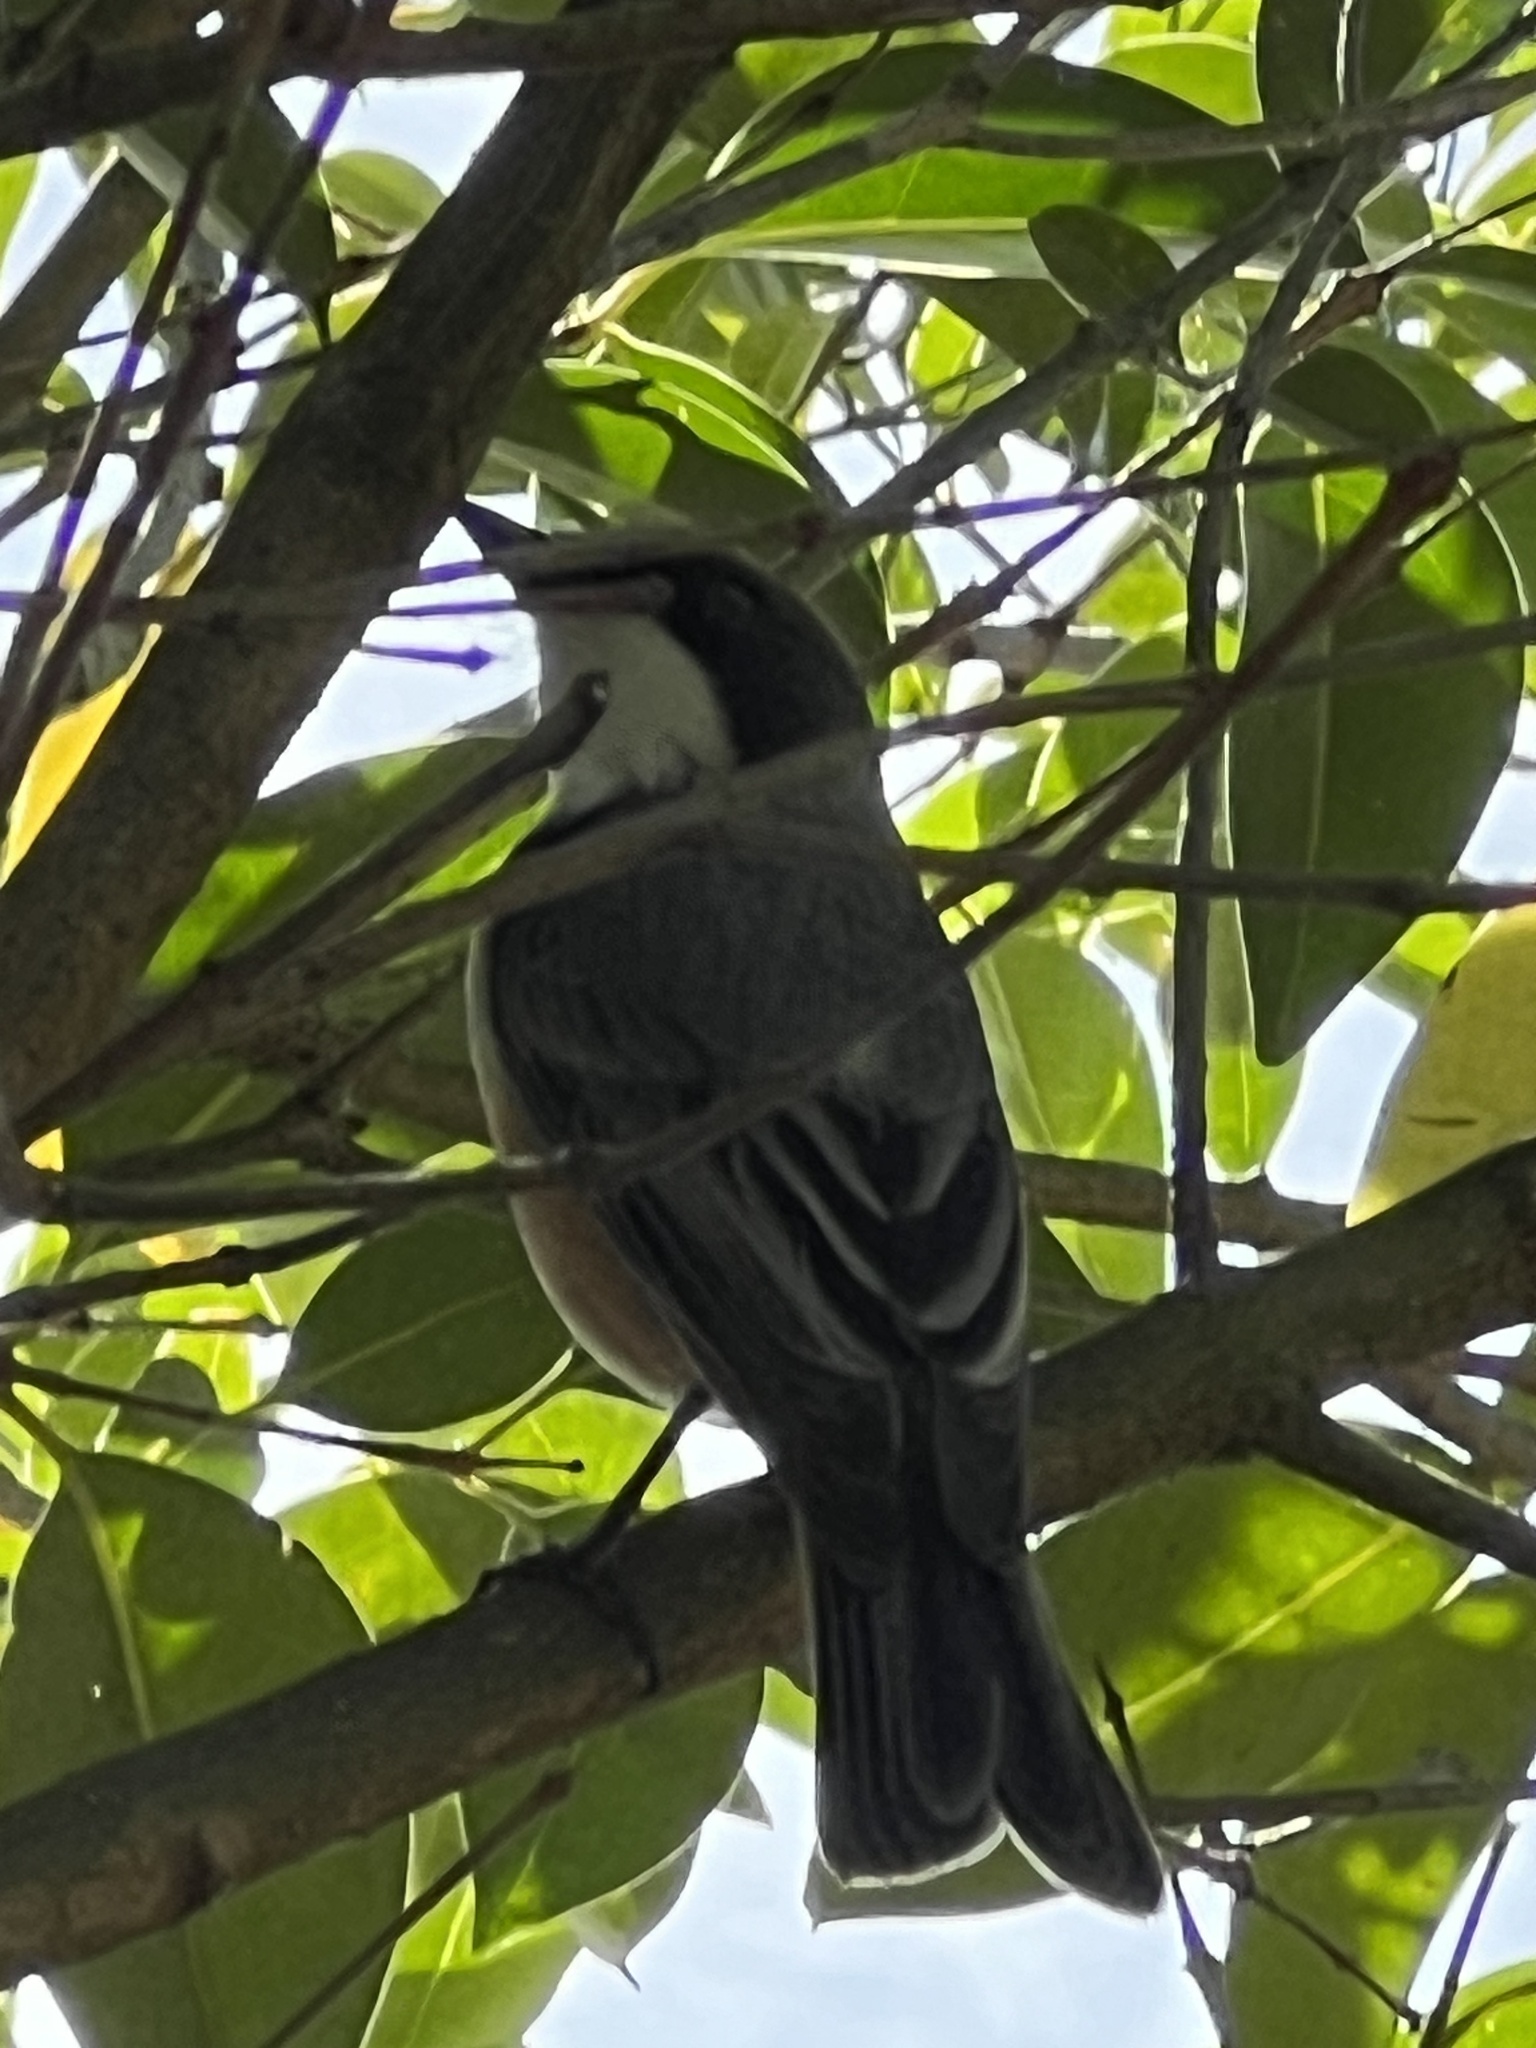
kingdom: Animalia
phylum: Chordata
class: Aves
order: Passeriformes
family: Pachycephalidae
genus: Pachycephala
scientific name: Pachycephala rufiventris
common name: Rufous whistler
